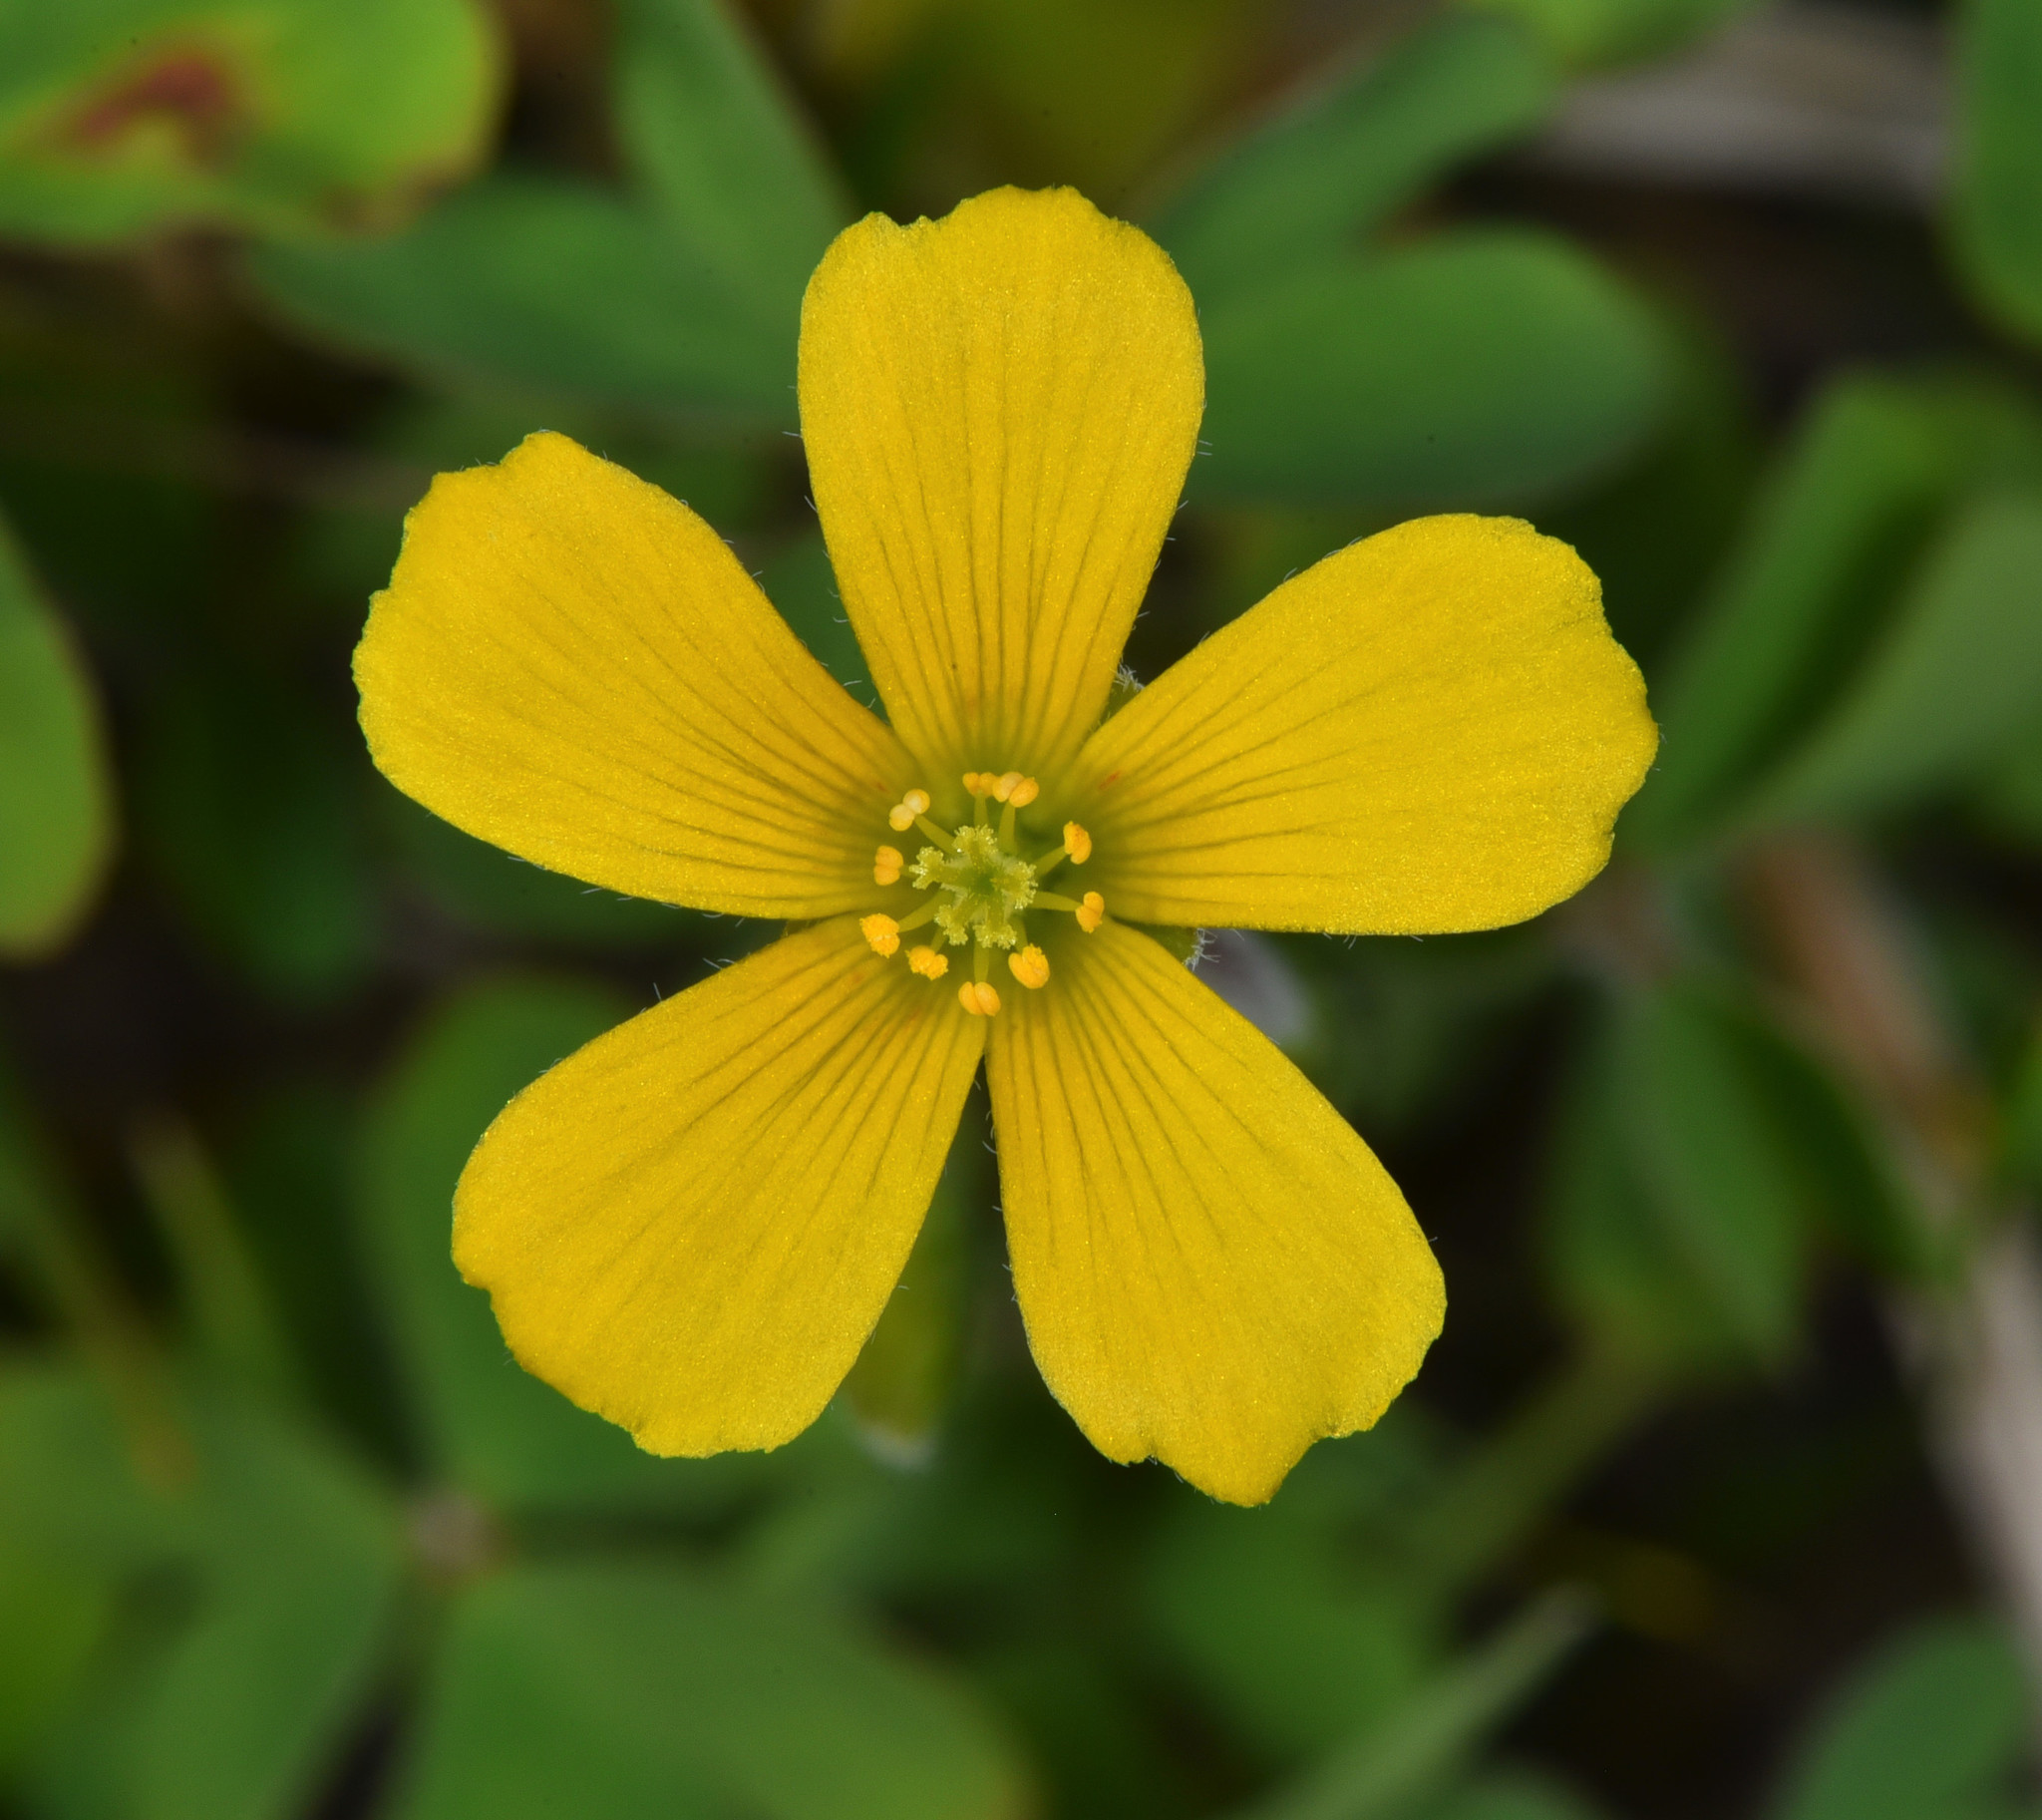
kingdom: Plantae
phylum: Tracheophyta
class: Magnoliopsida
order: Oxalidales
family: Oxalidaceae
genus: Oxalis
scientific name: Oxalis pilosa
